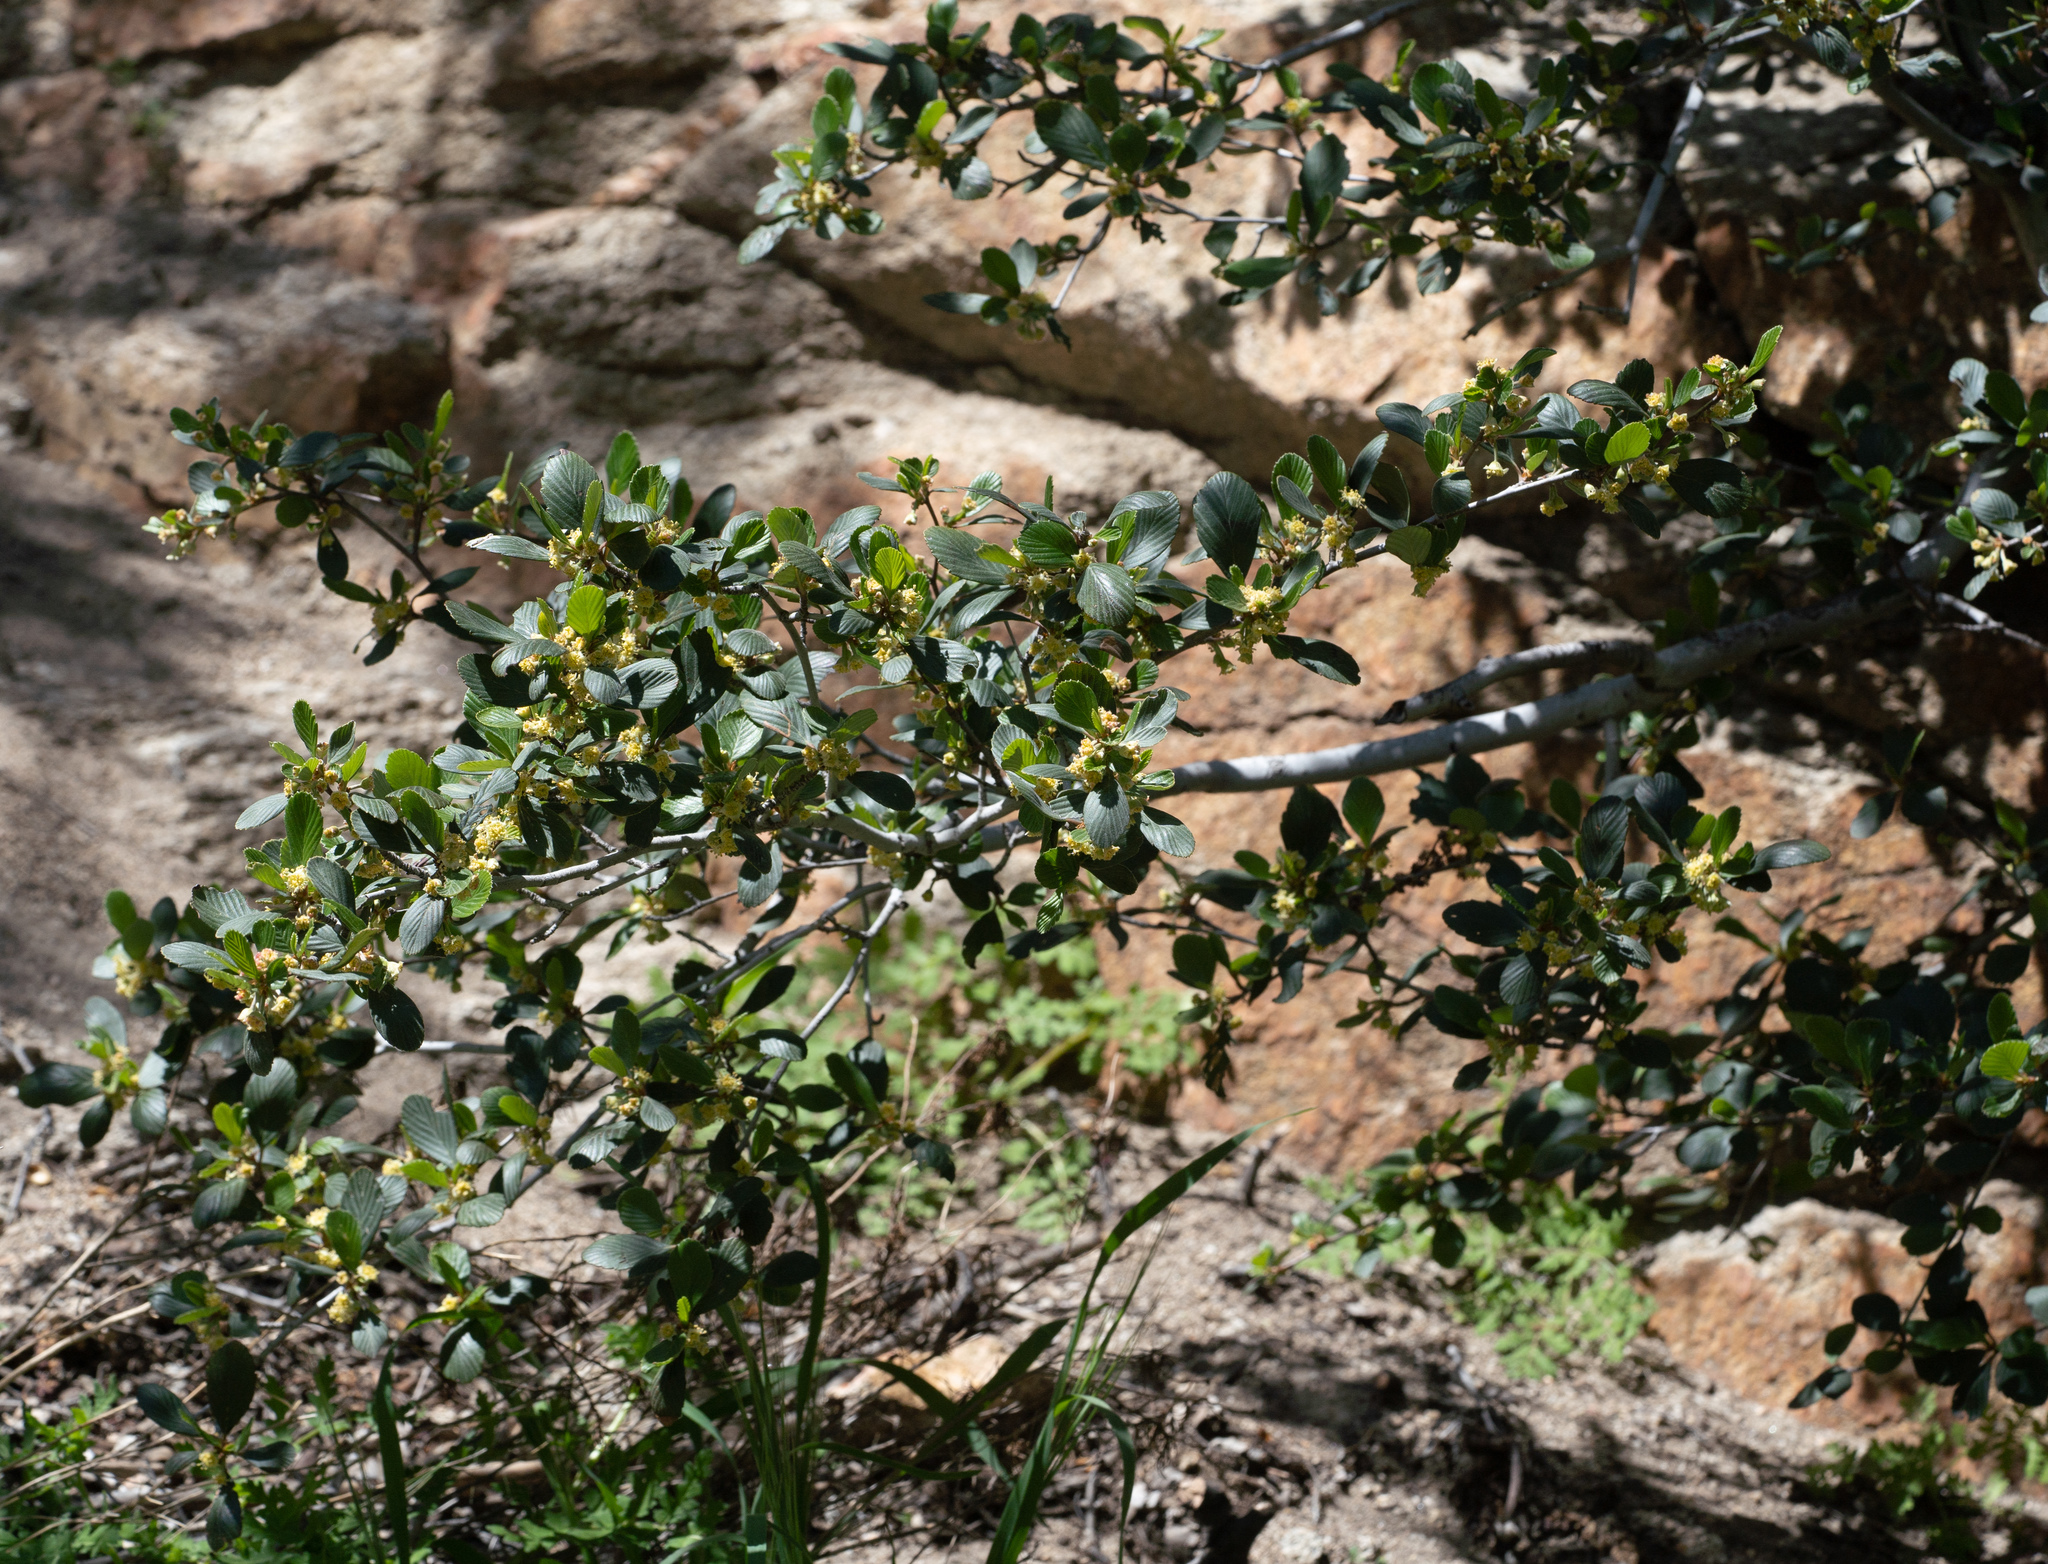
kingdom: Plantae
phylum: Tracheophyta
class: Magnoliopsida
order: Rosales
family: Rosaceae
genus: Cercocarpus
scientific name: Cercocarpus betuloides
